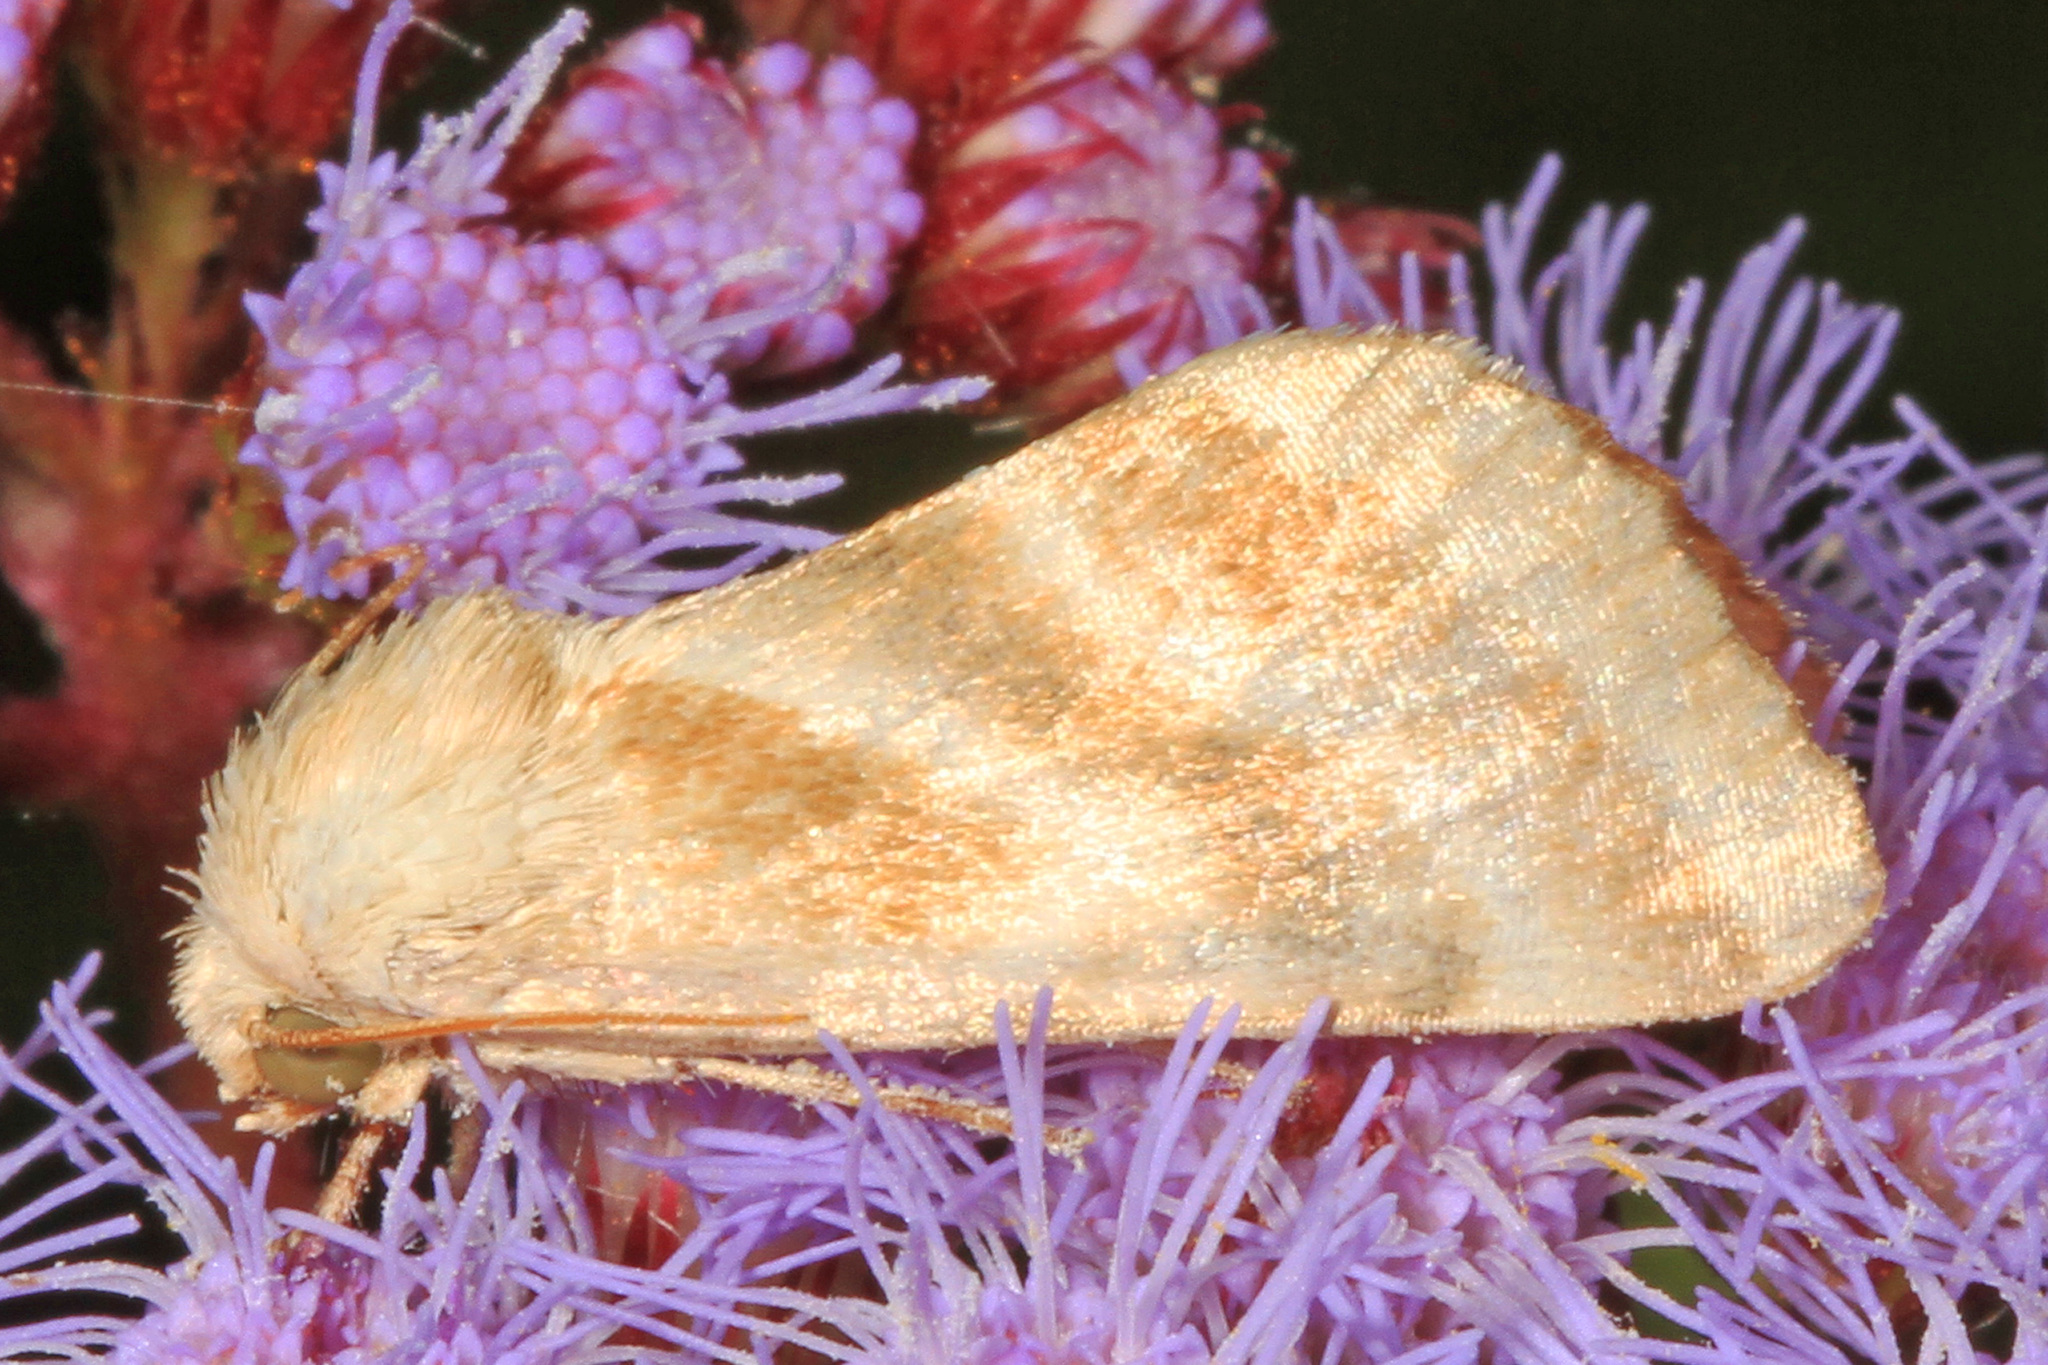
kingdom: Animalia
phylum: Arthropoda
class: Insecta
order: Lepidoptera
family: Noctuidae
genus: Schinia
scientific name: Schinia trifascia
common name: Three-lined flower moth
